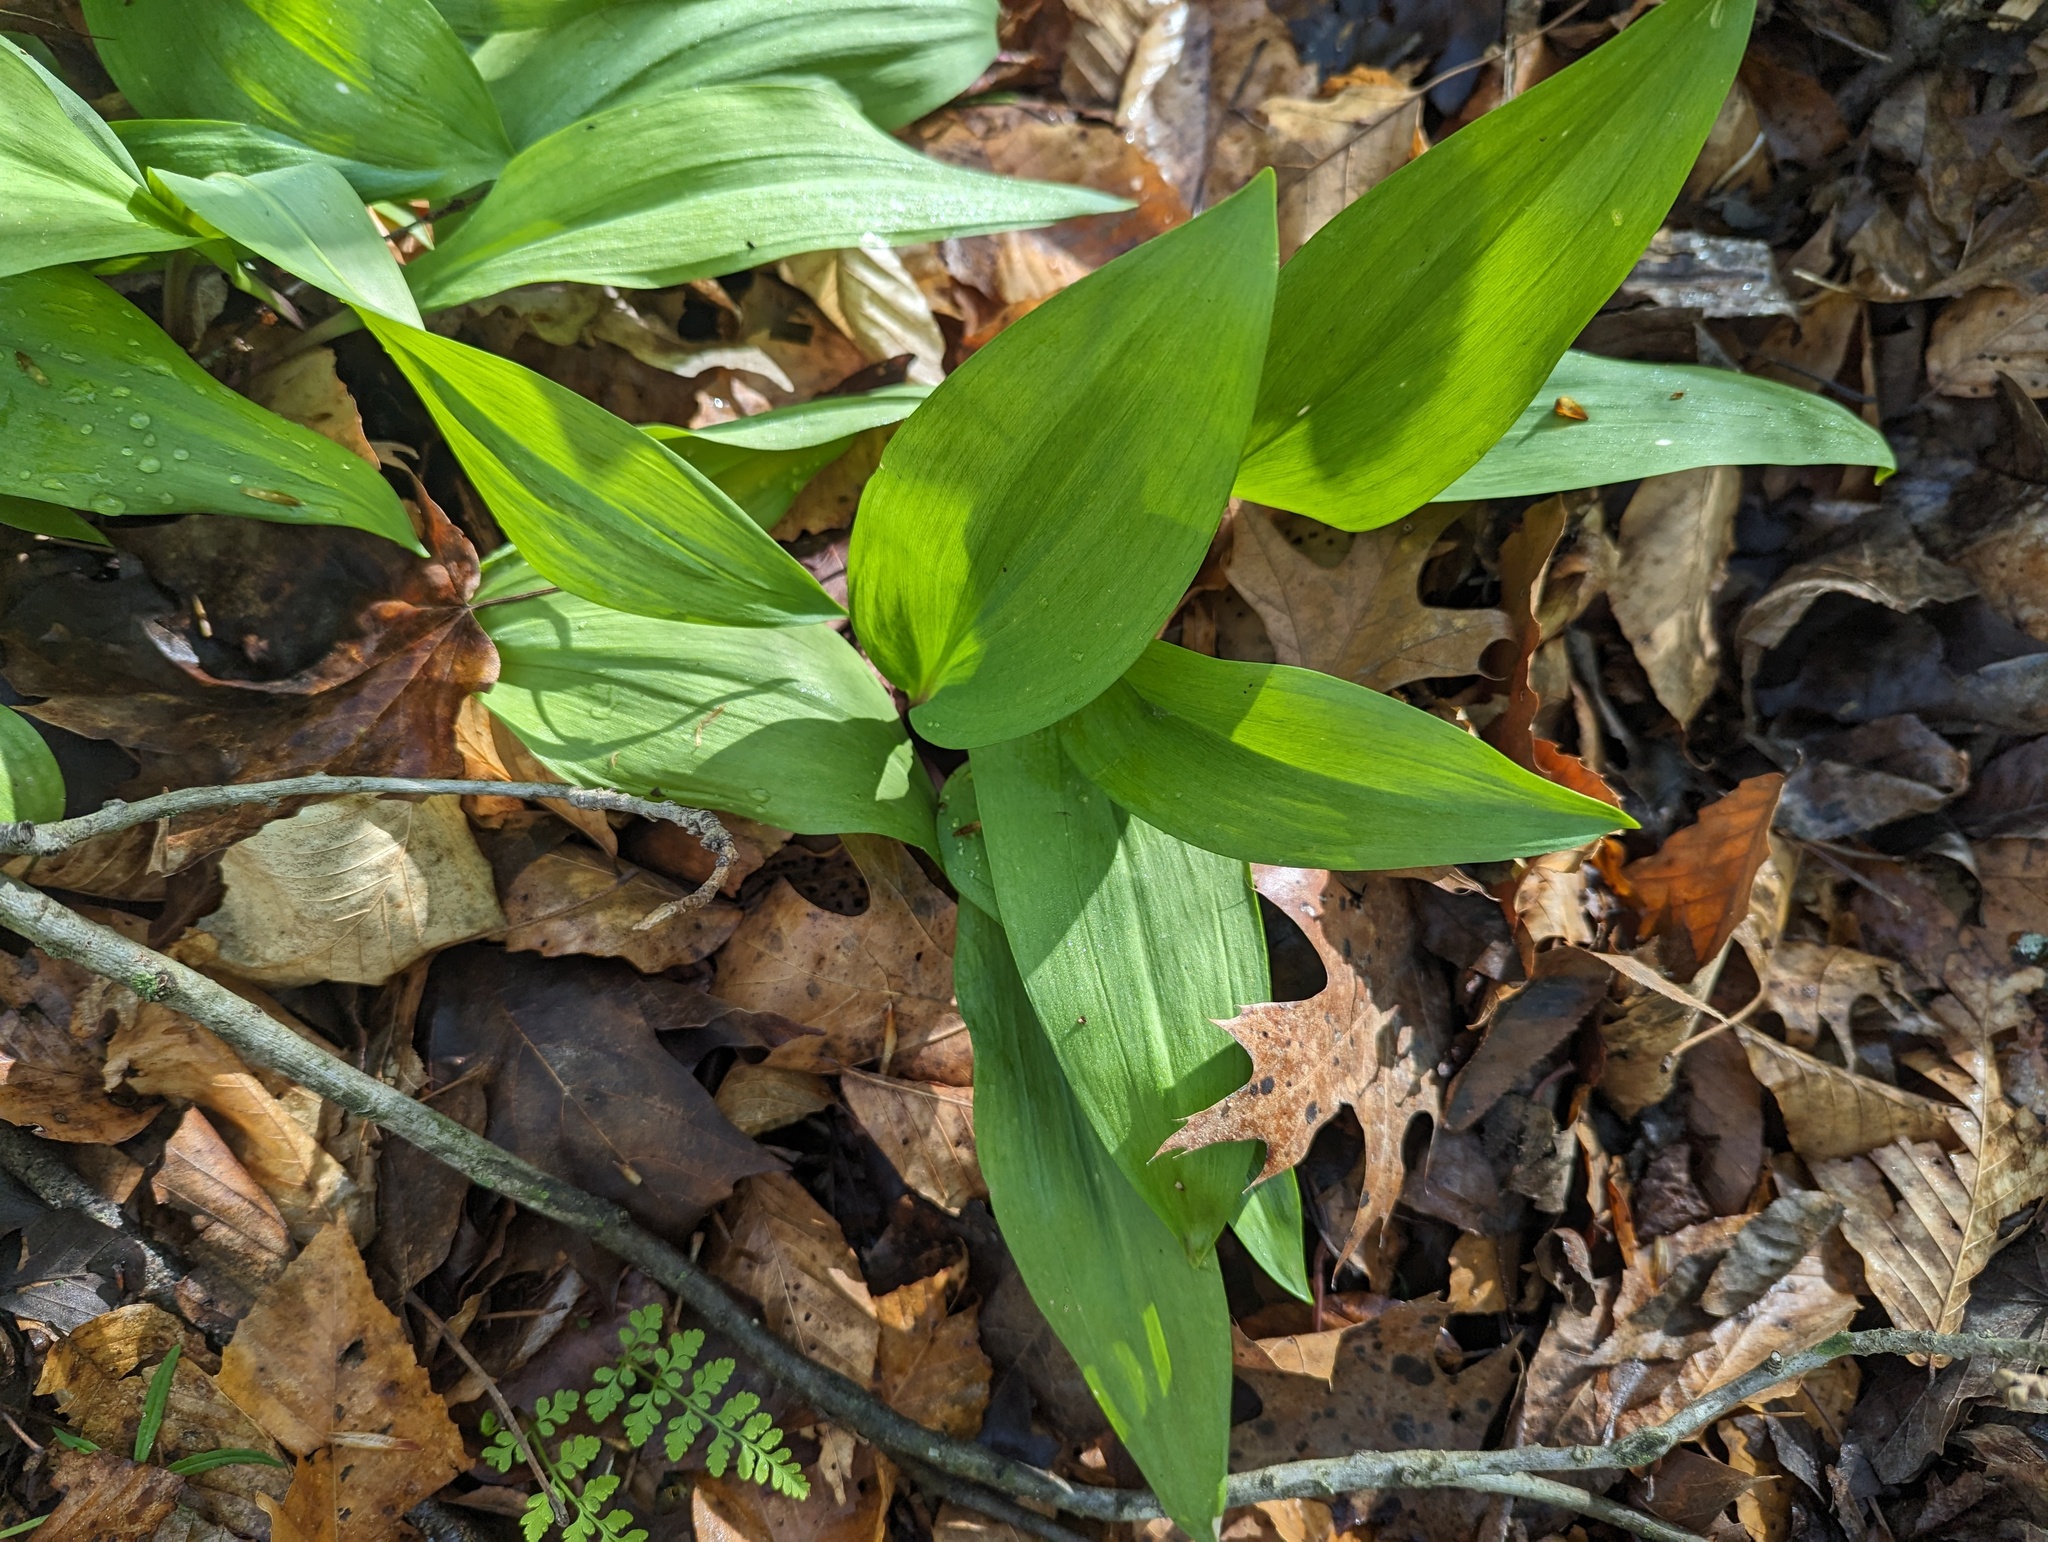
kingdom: Plantae
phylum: Tracheophyta
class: Liliopsida
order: Asparagales
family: Amaryllidaceae
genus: Allium
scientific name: Allium tricoccum
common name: Ramp
